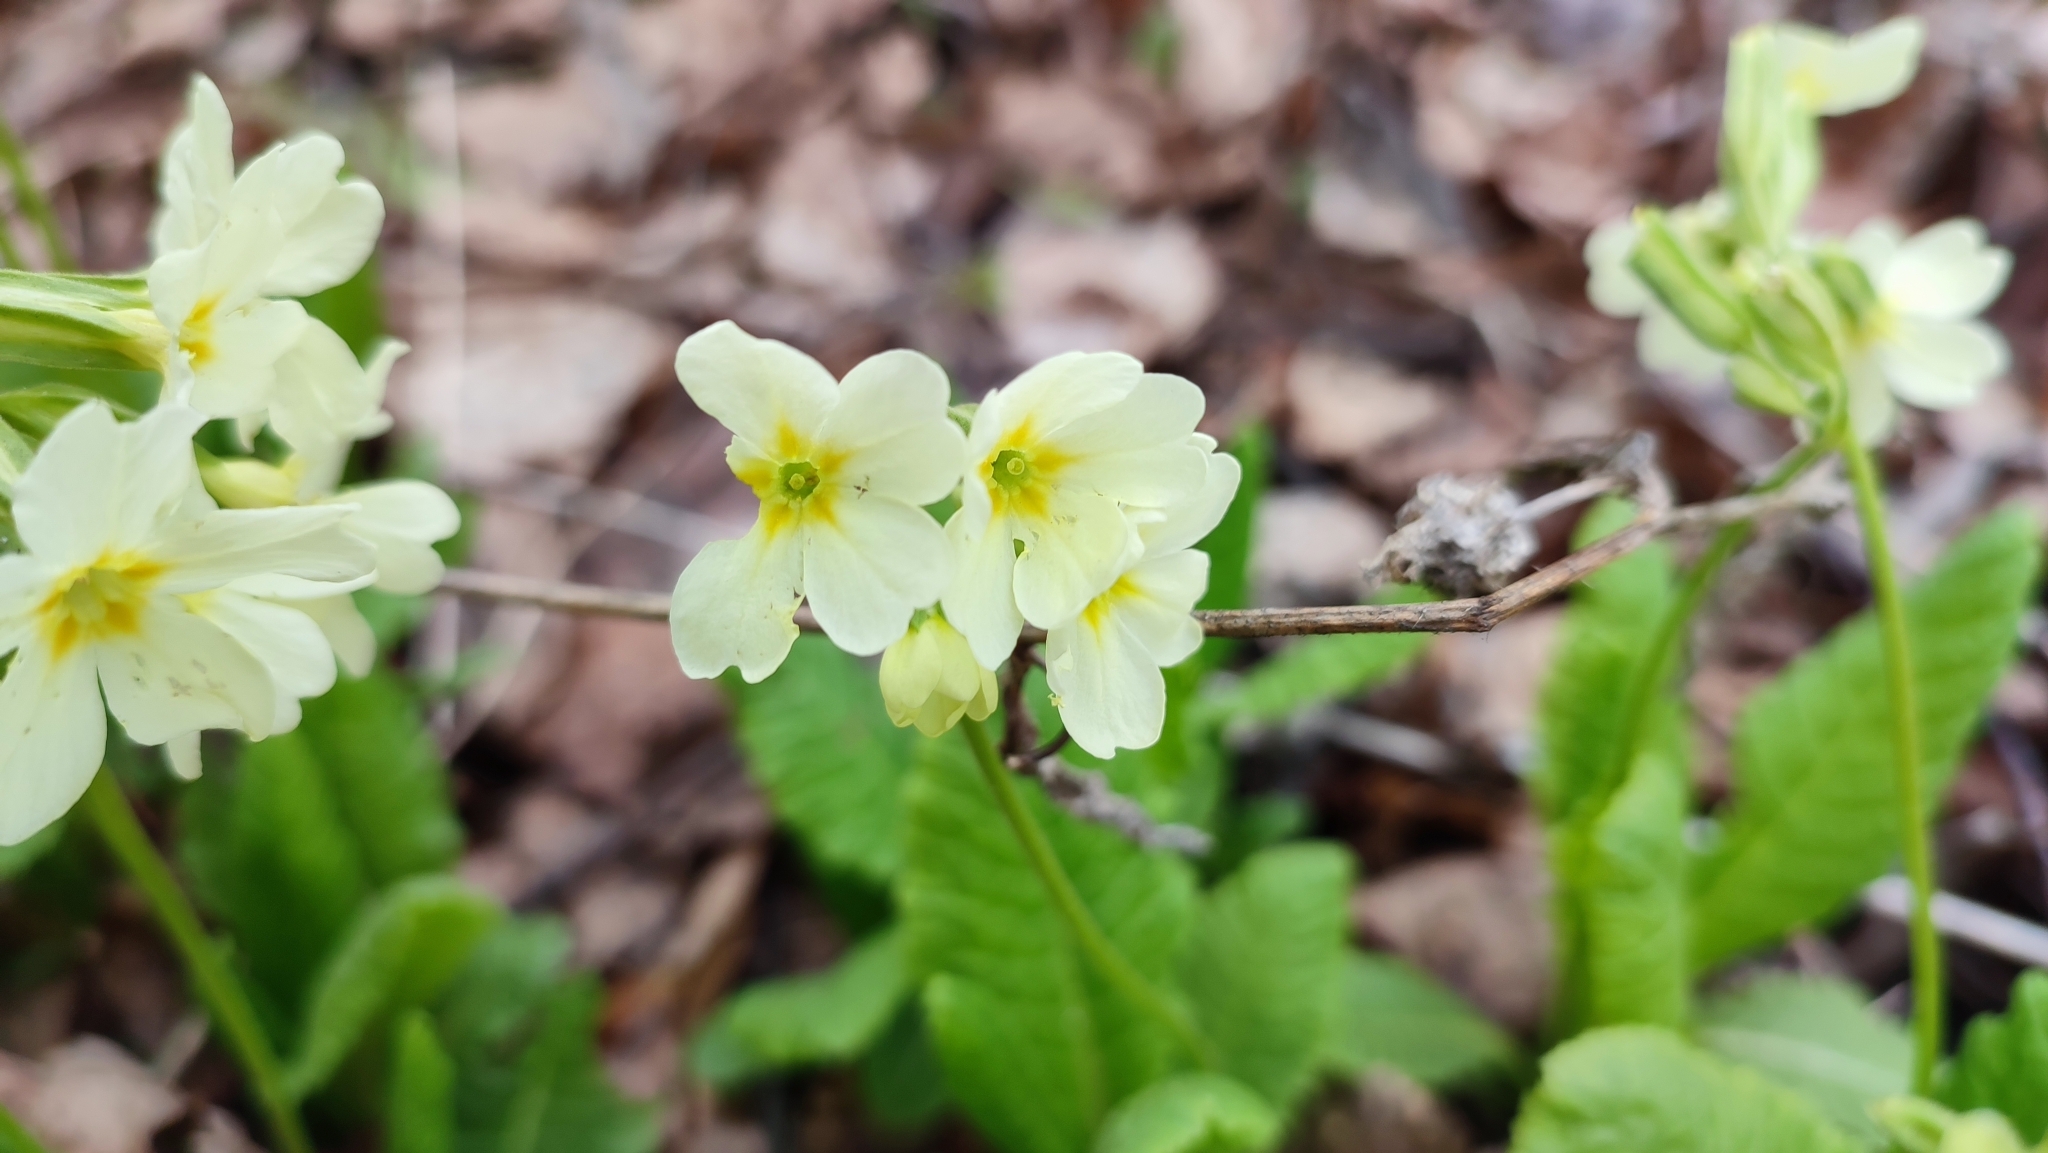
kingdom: Plantae
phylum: Tracheophyta
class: Magnoliopsida
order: Ericales
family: Primulaceae
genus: Primula
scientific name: Primula elatior
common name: Oxlip
